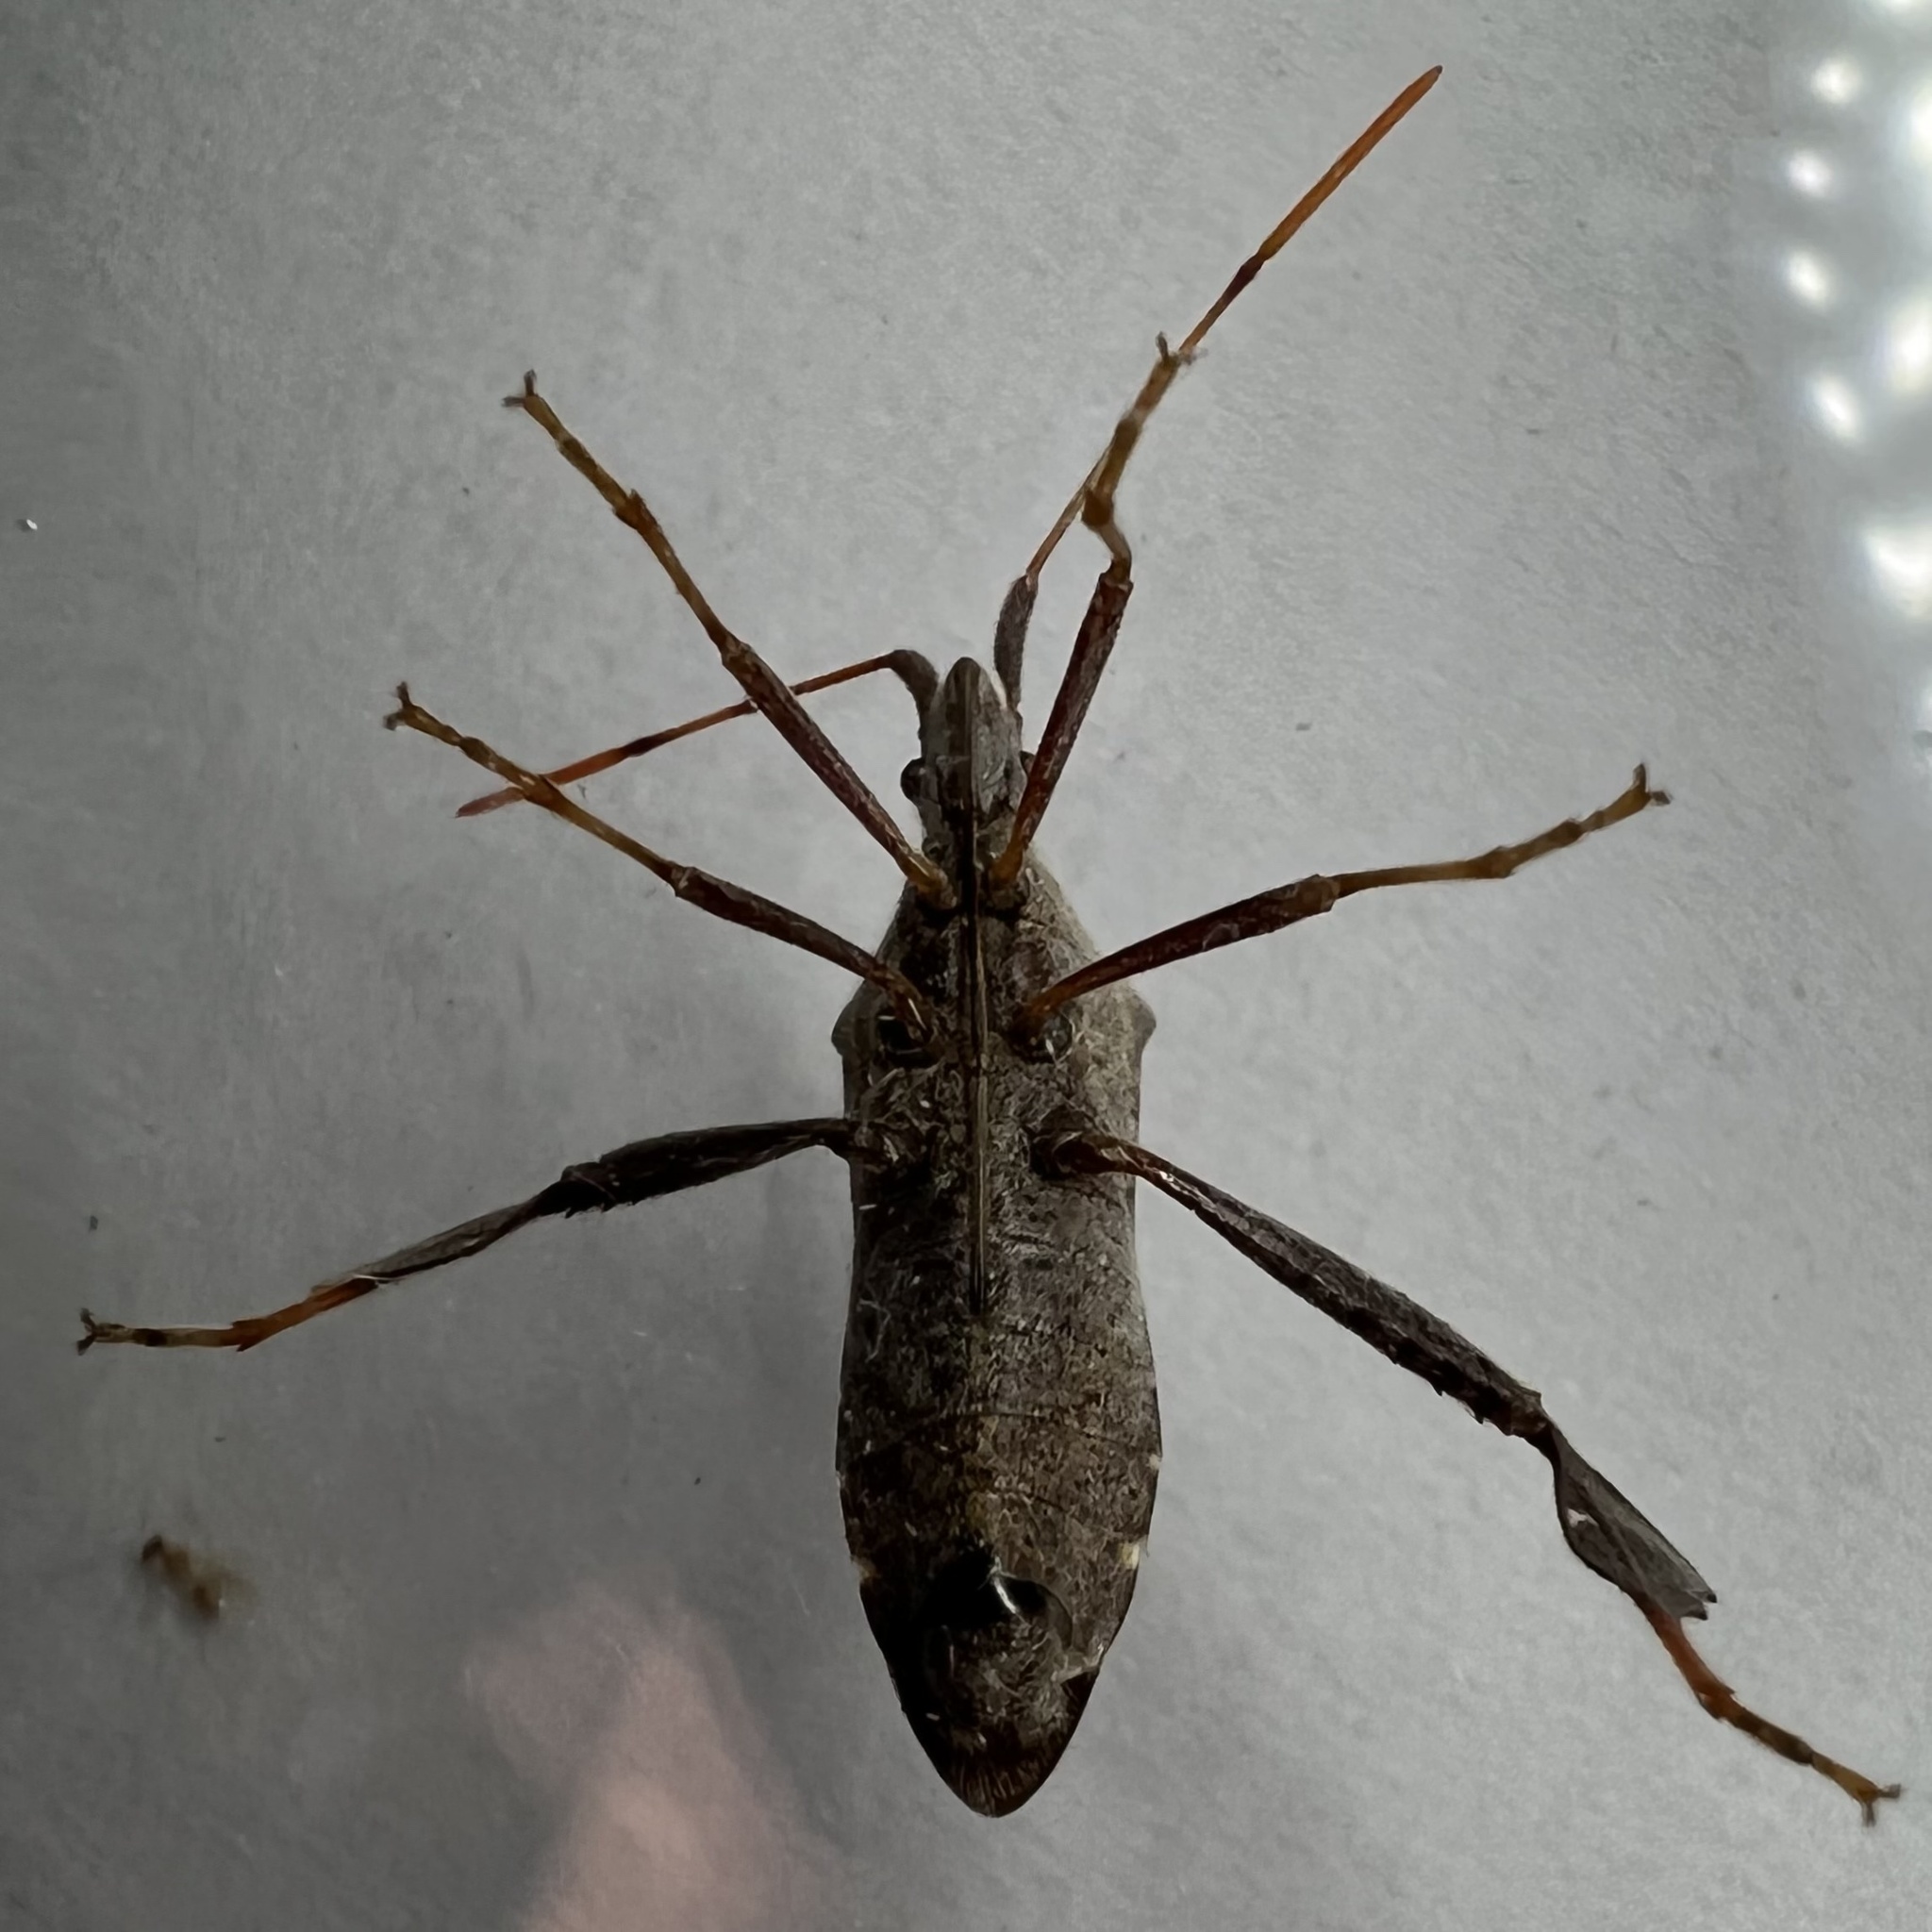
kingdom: Animalia
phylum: Arthropoda
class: Insecta
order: Hemiptera
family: Coreidae
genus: Leptoglossus
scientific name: Leptoglossus oppositus
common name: Northern leaf-footed bug
